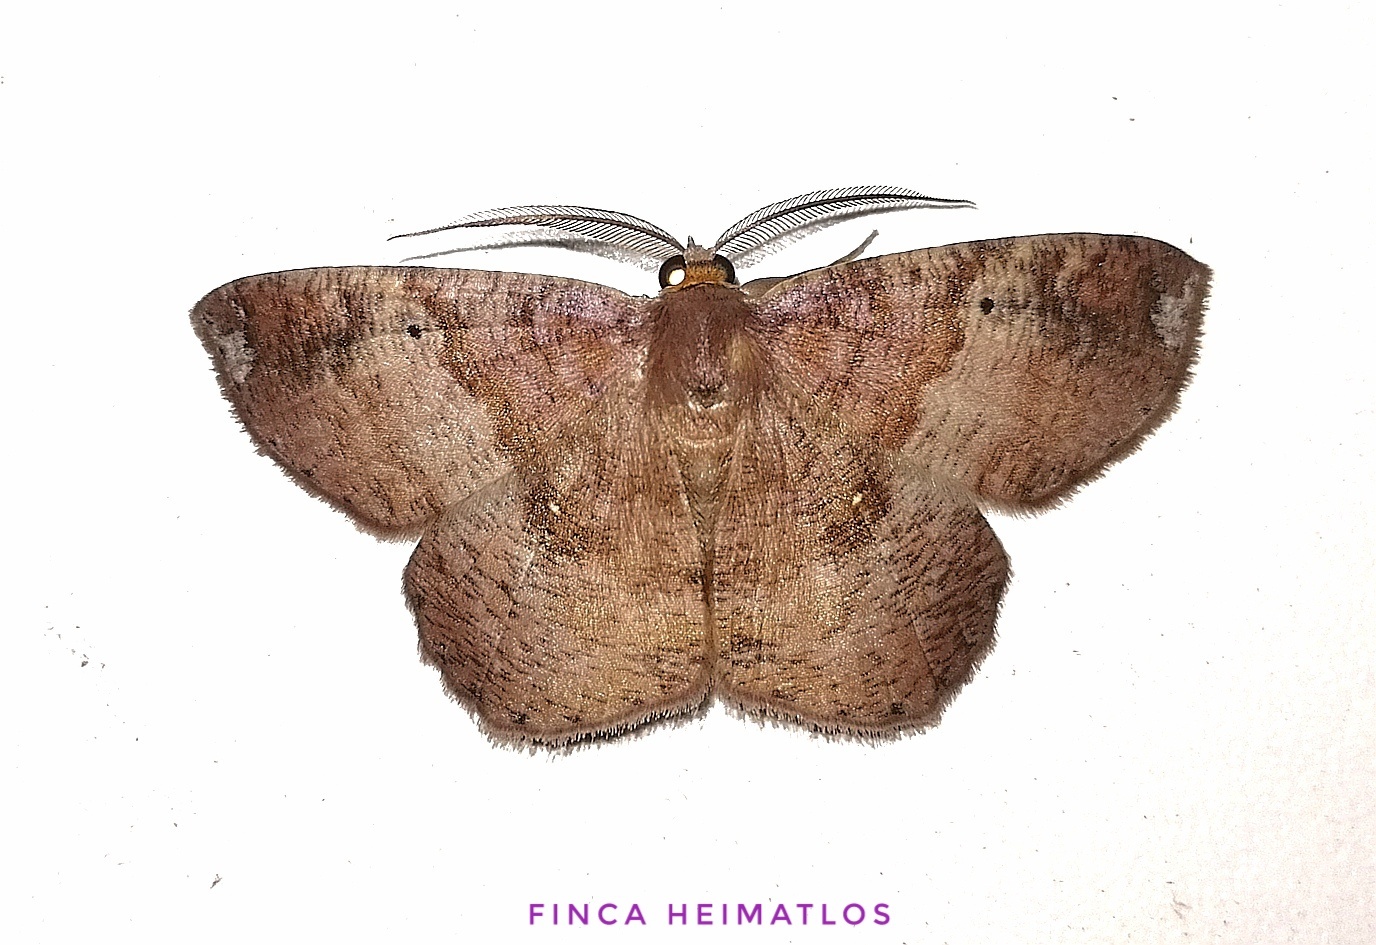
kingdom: Animalia
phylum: Arthropoda
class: Insecta
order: Lepidoptera
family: Geometridae
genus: Thysanopyga
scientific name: Thysanopyga
